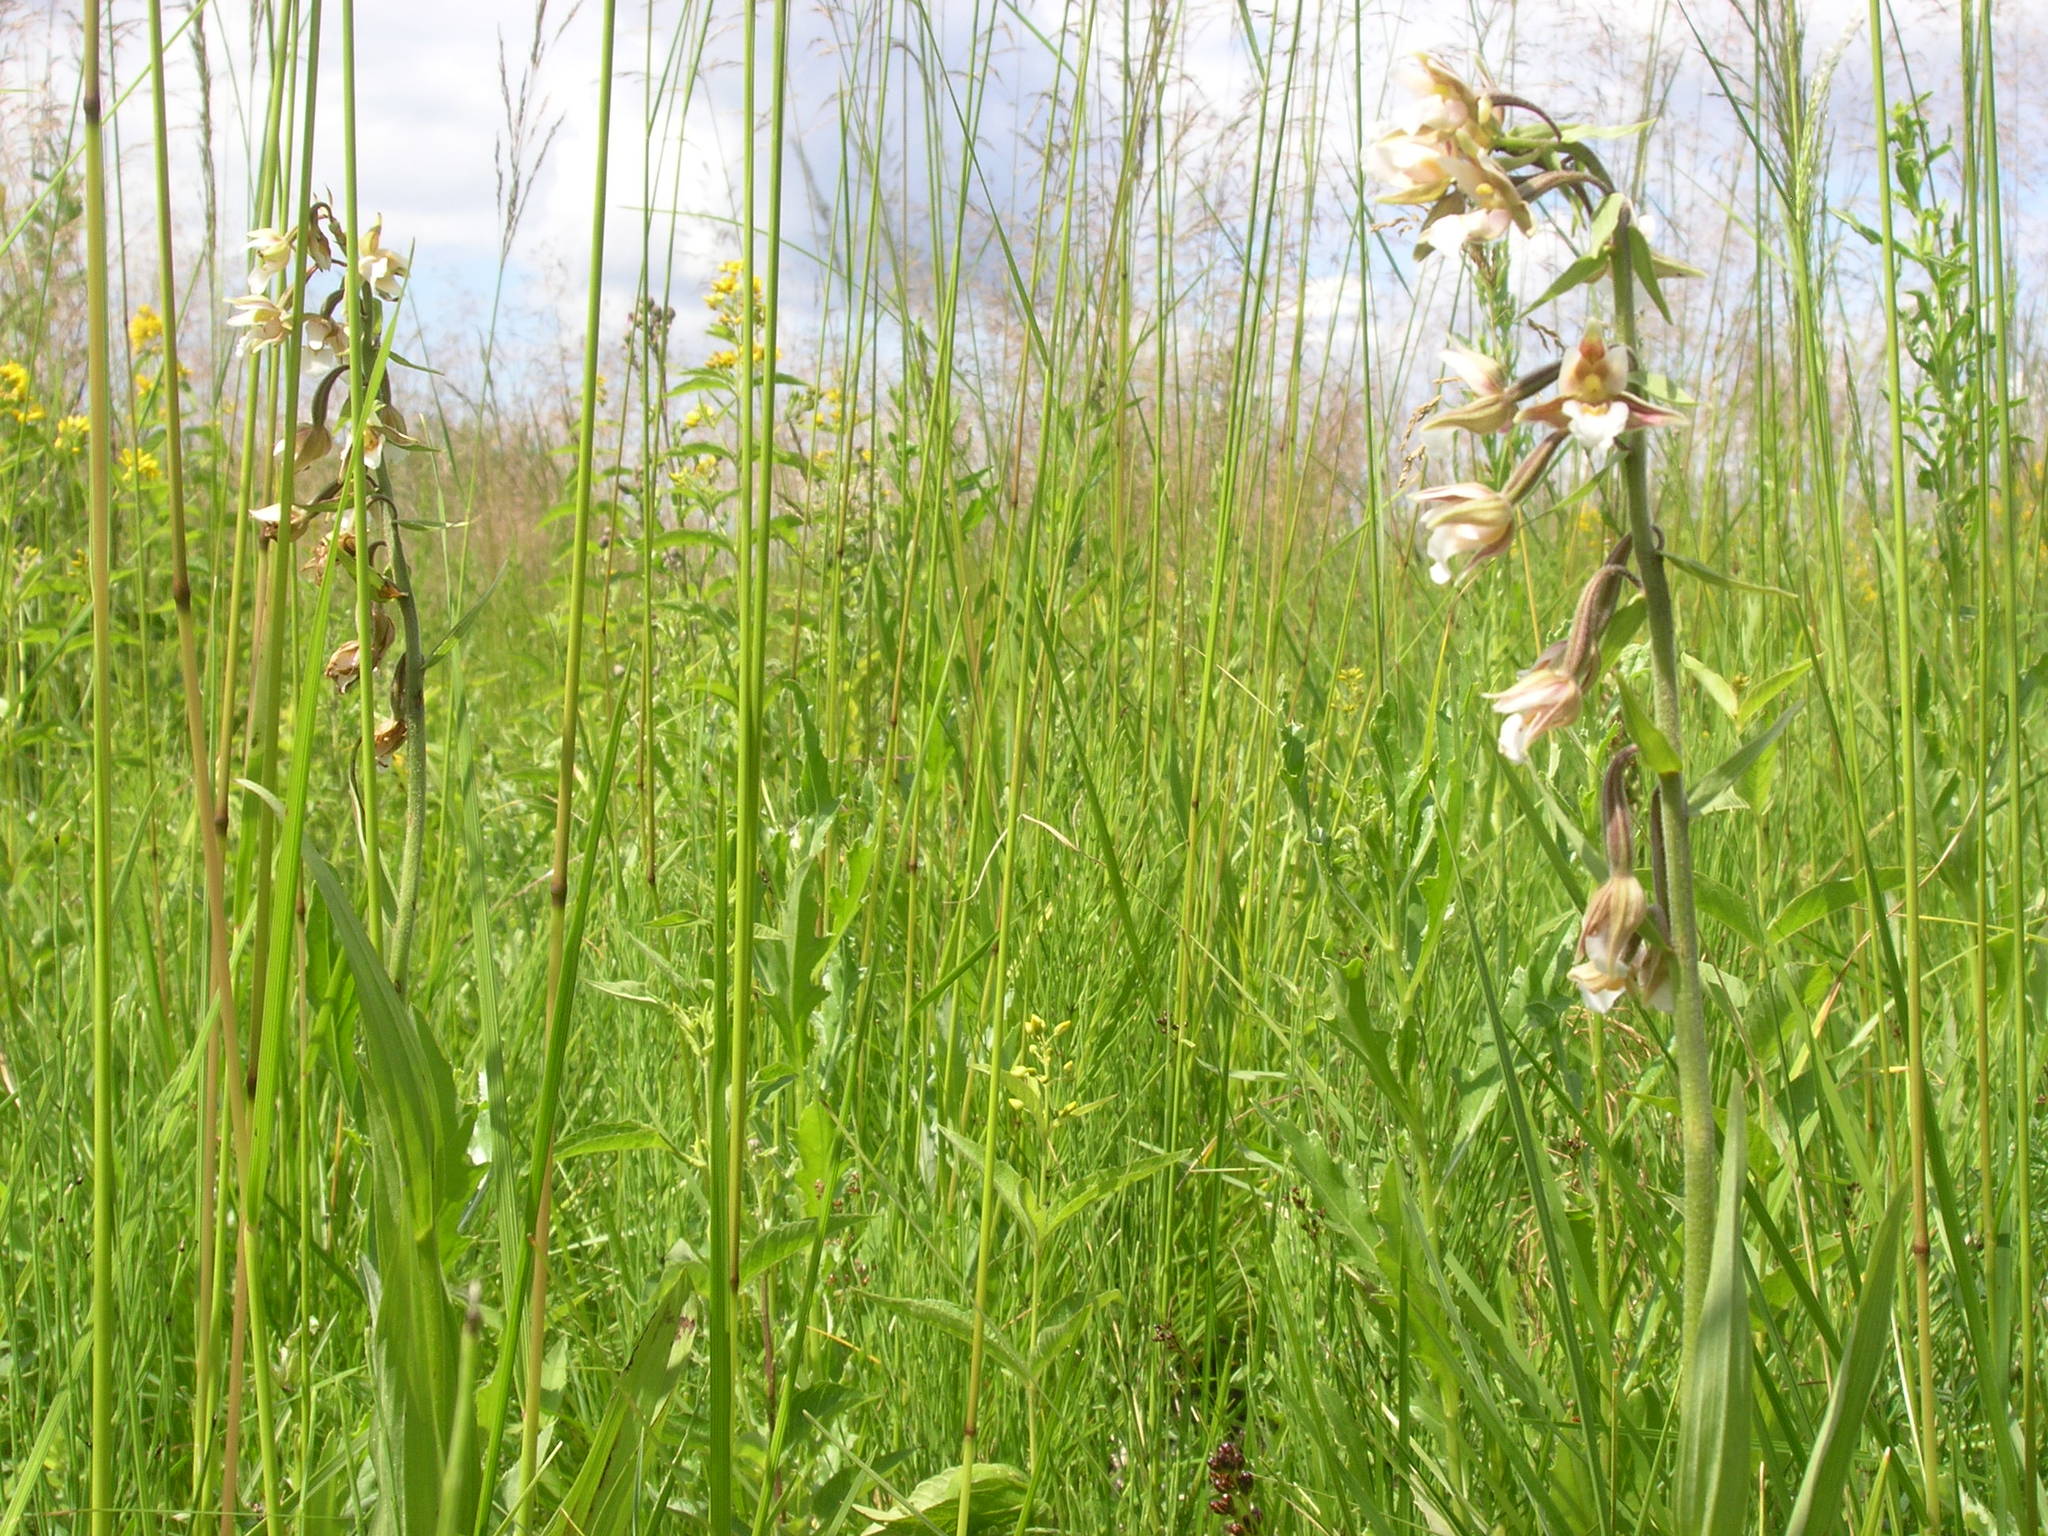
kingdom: Plantae
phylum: Tracheophyta
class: Liliopsida
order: Asparagales
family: Orchidaceae
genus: Epipactis
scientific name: Epipactis palustris
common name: Marsh helleborine
